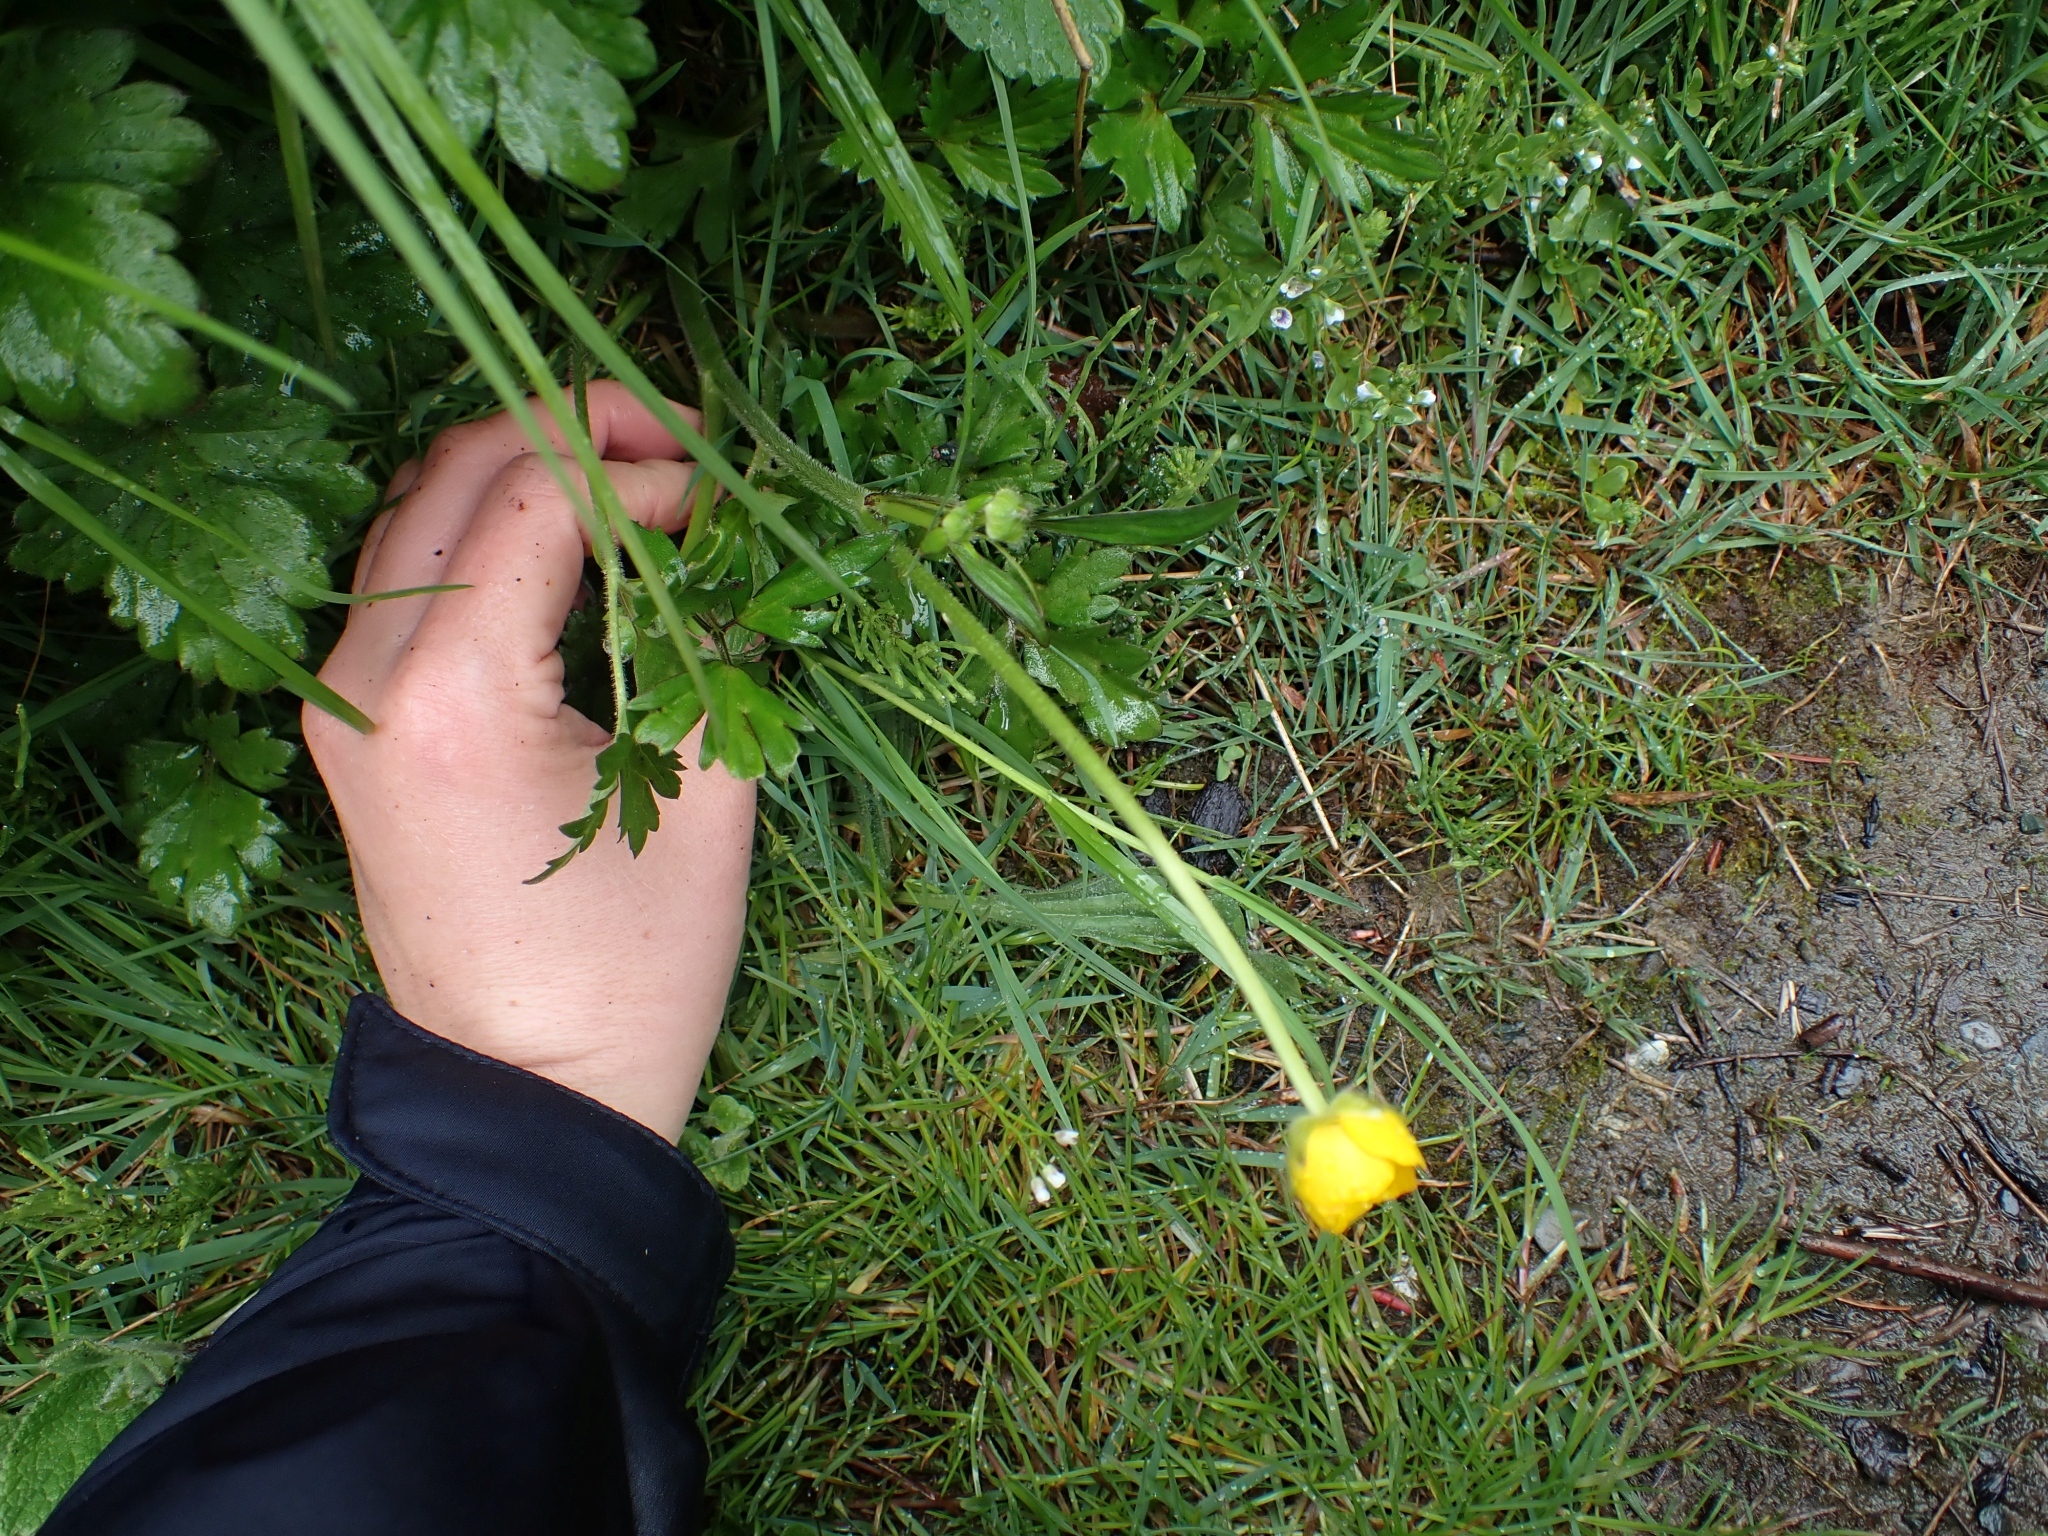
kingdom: Plantae
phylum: Tracheophyta
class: Magnoliopsida
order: Ranunculales
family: Ranunculaceae
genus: Ranunculus
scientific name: Ranunculus repens
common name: Creeping buttercup
